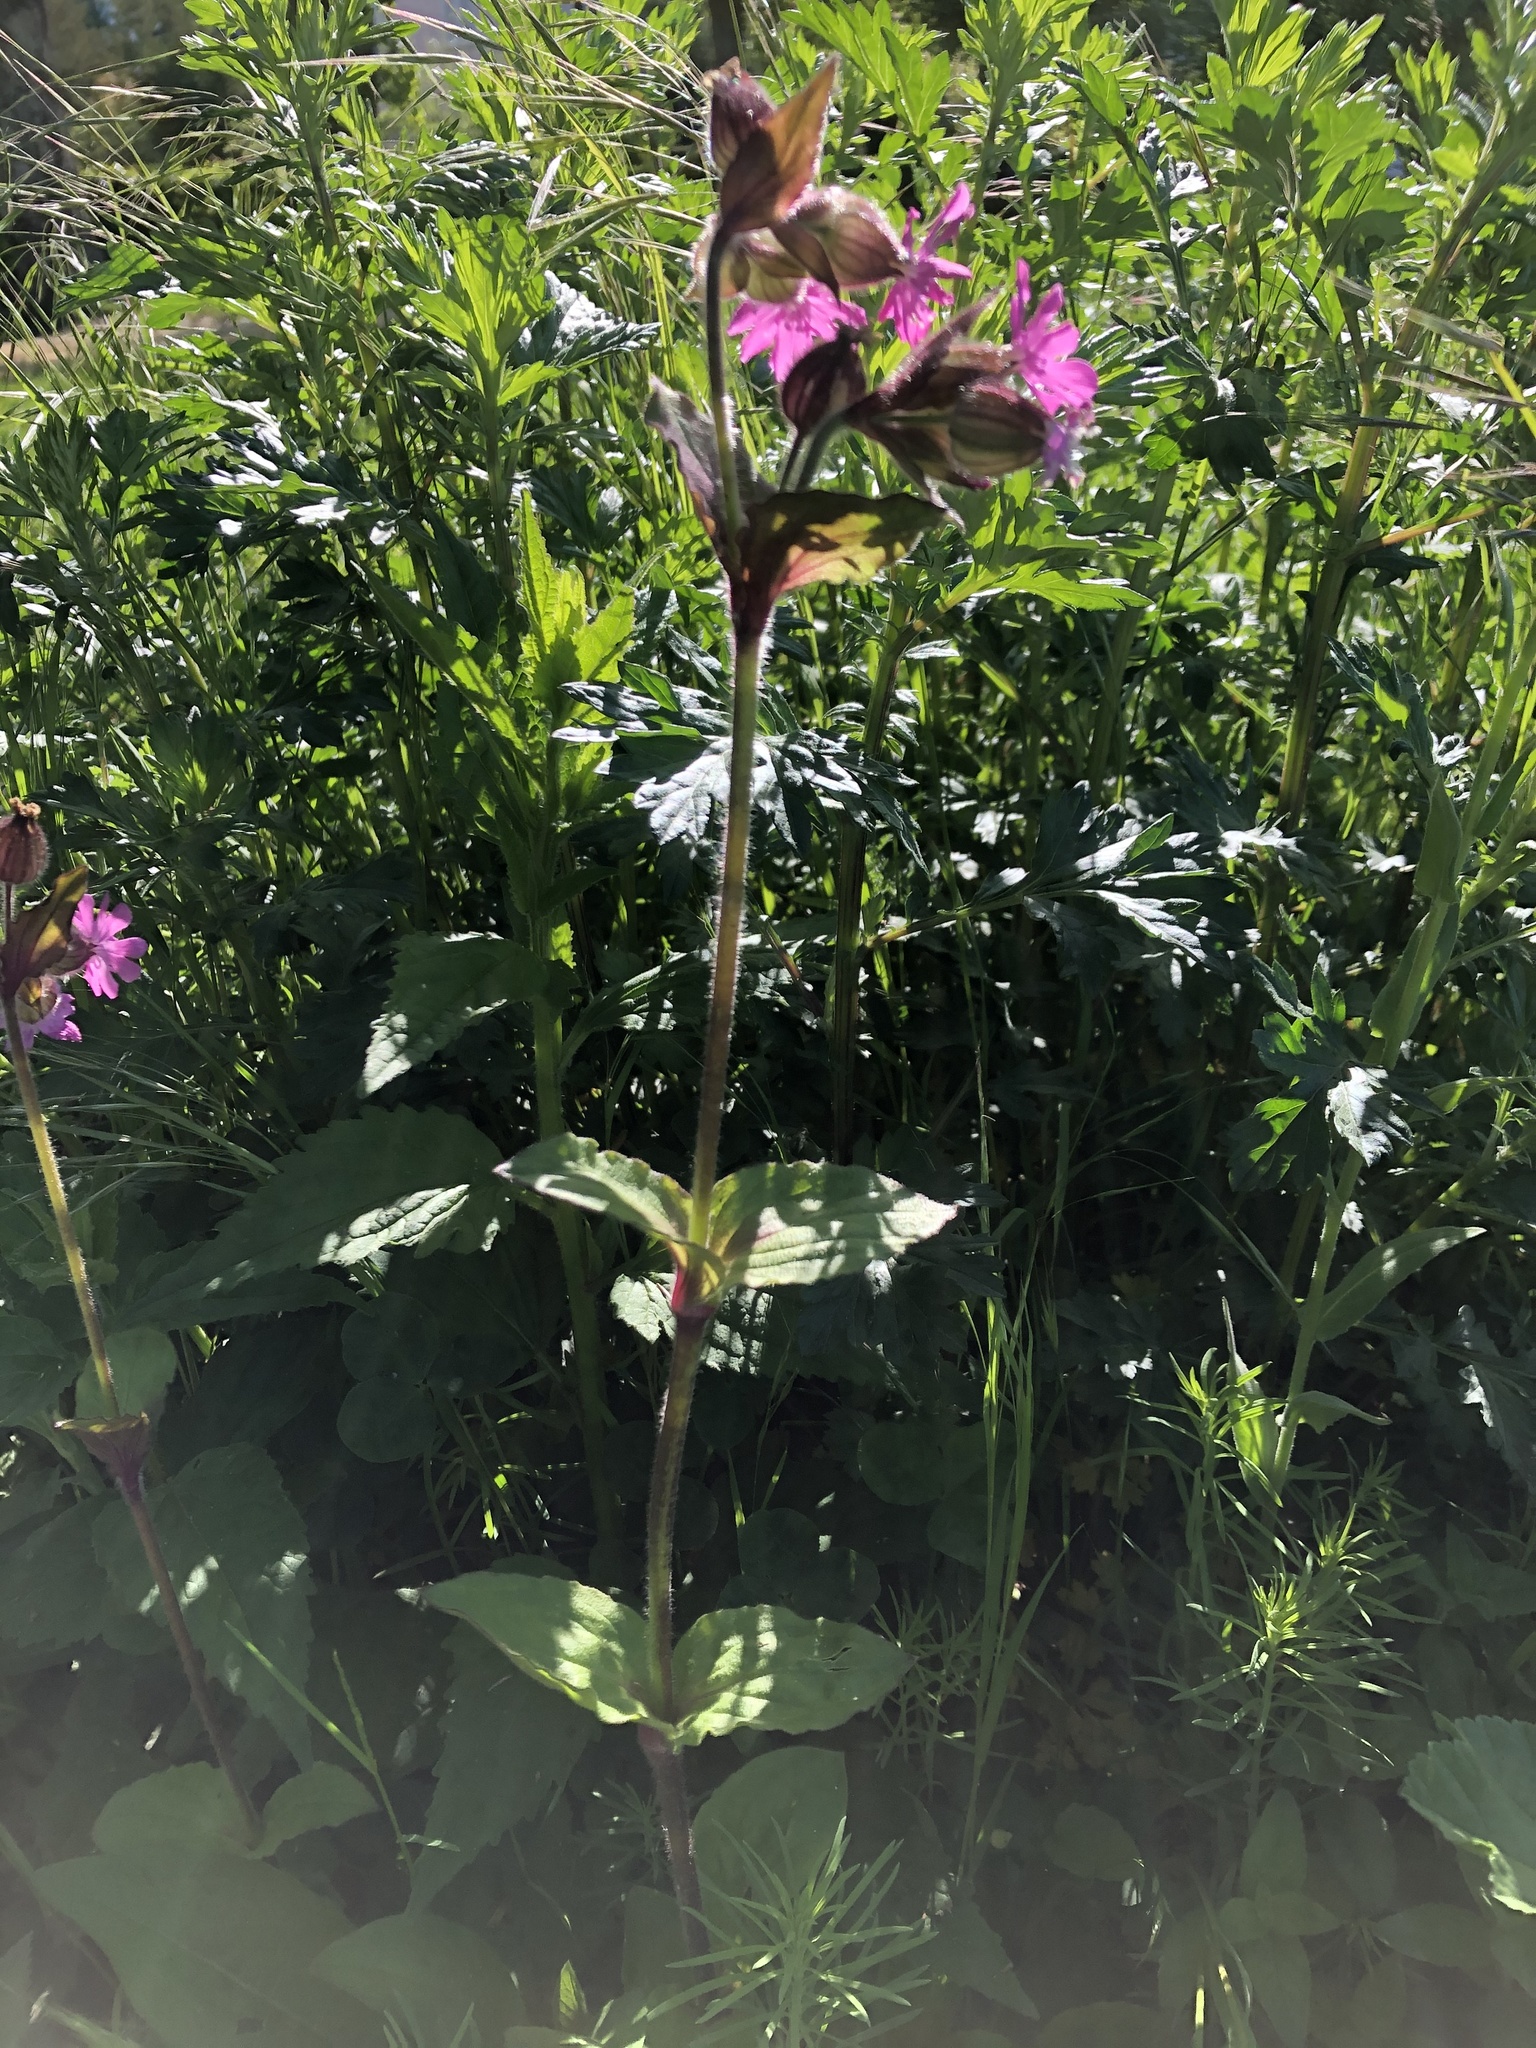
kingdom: Plantae
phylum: Tracheophyta
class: Magnoliopsida
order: Caryophyllales
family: Caryophyllaceae
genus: Silene
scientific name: Silene dioica
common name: Red campion
